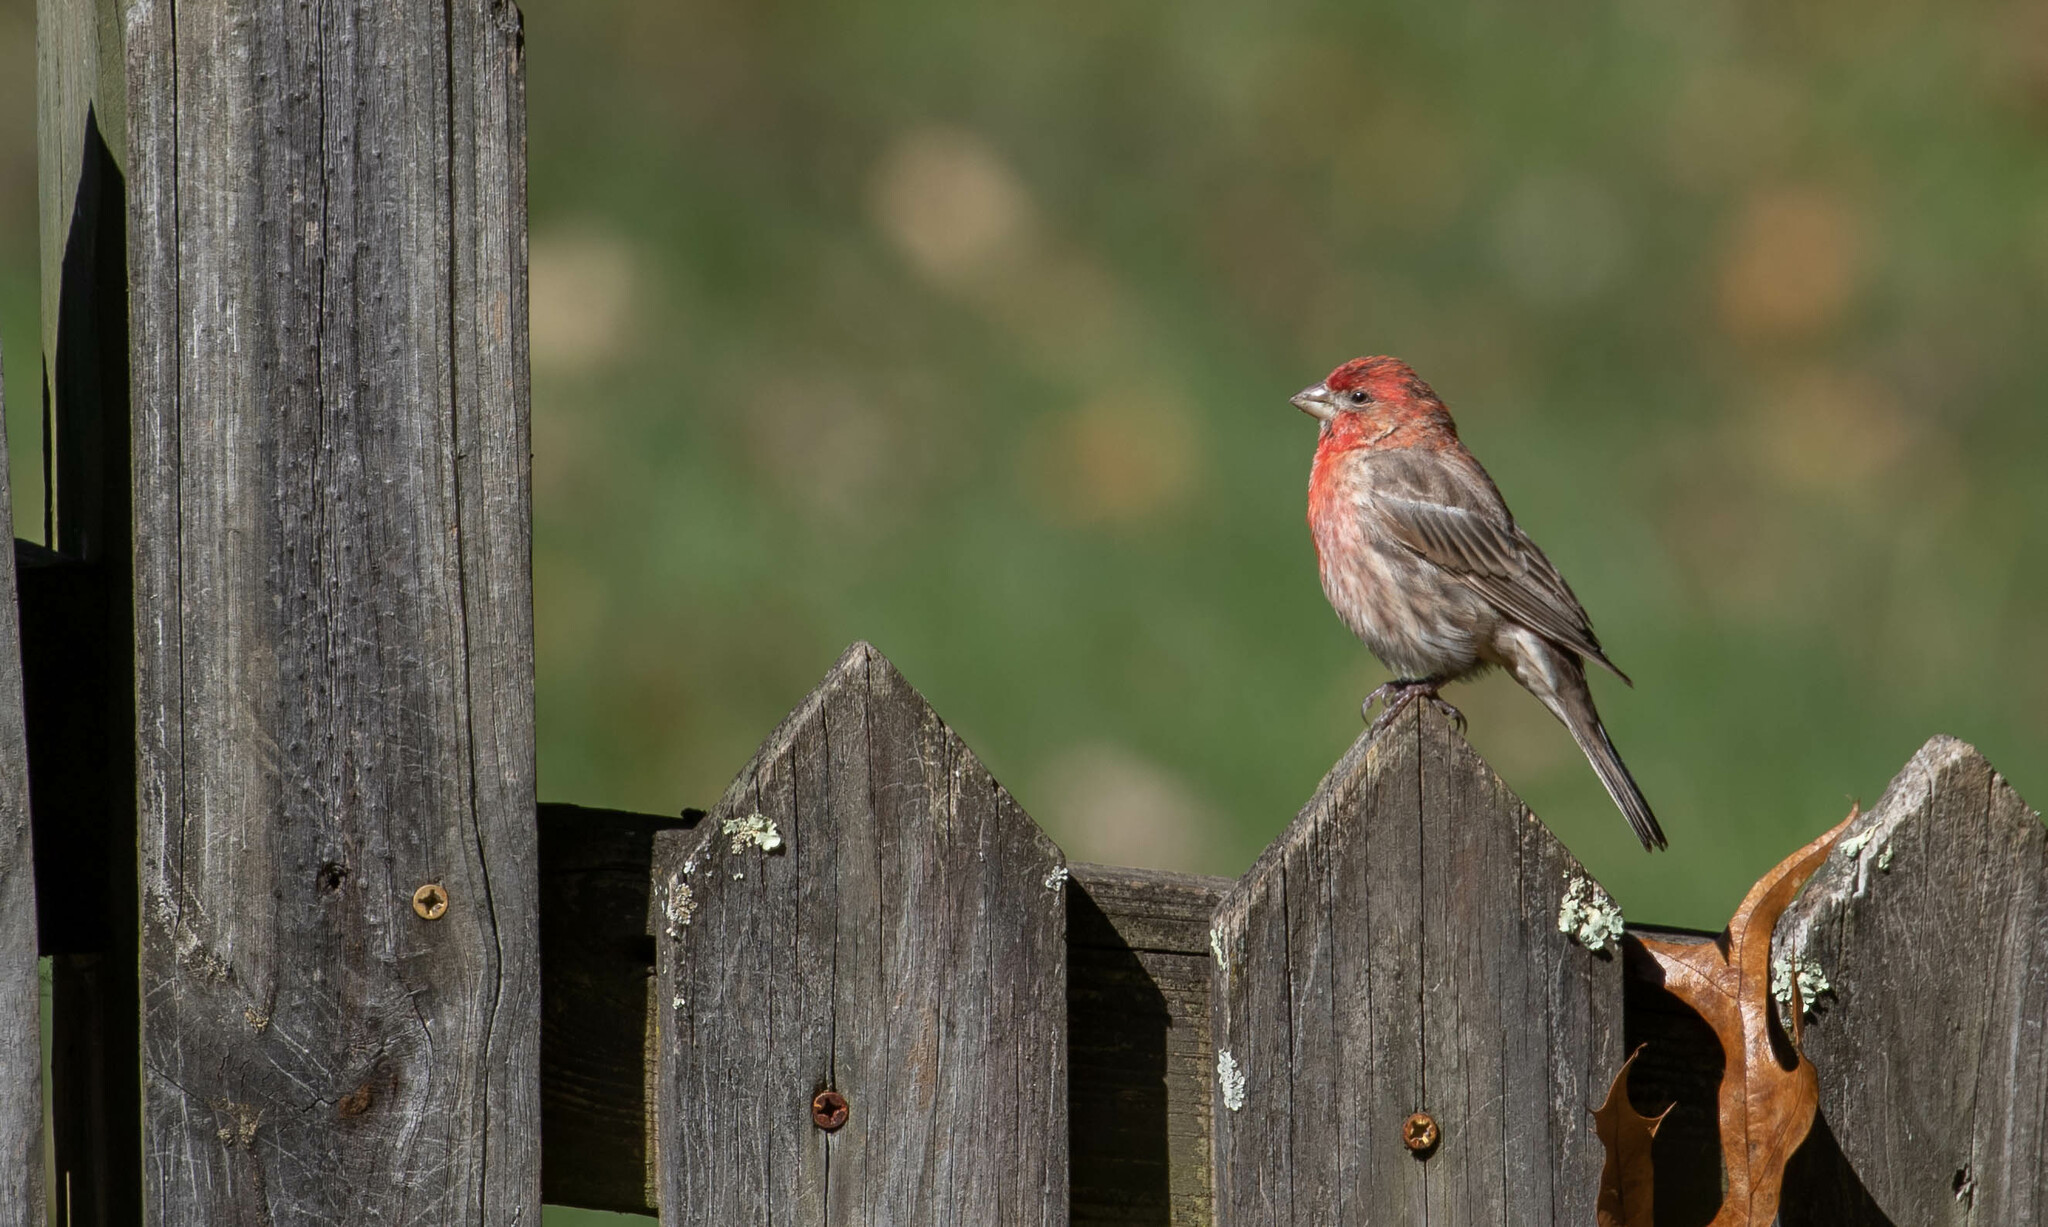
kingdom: Animalia
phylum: Chordata
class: Aves
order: Passeriformes
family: Fringillidae
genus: Haemorhous
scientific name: Haemorhous mexicanus
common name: House finch
